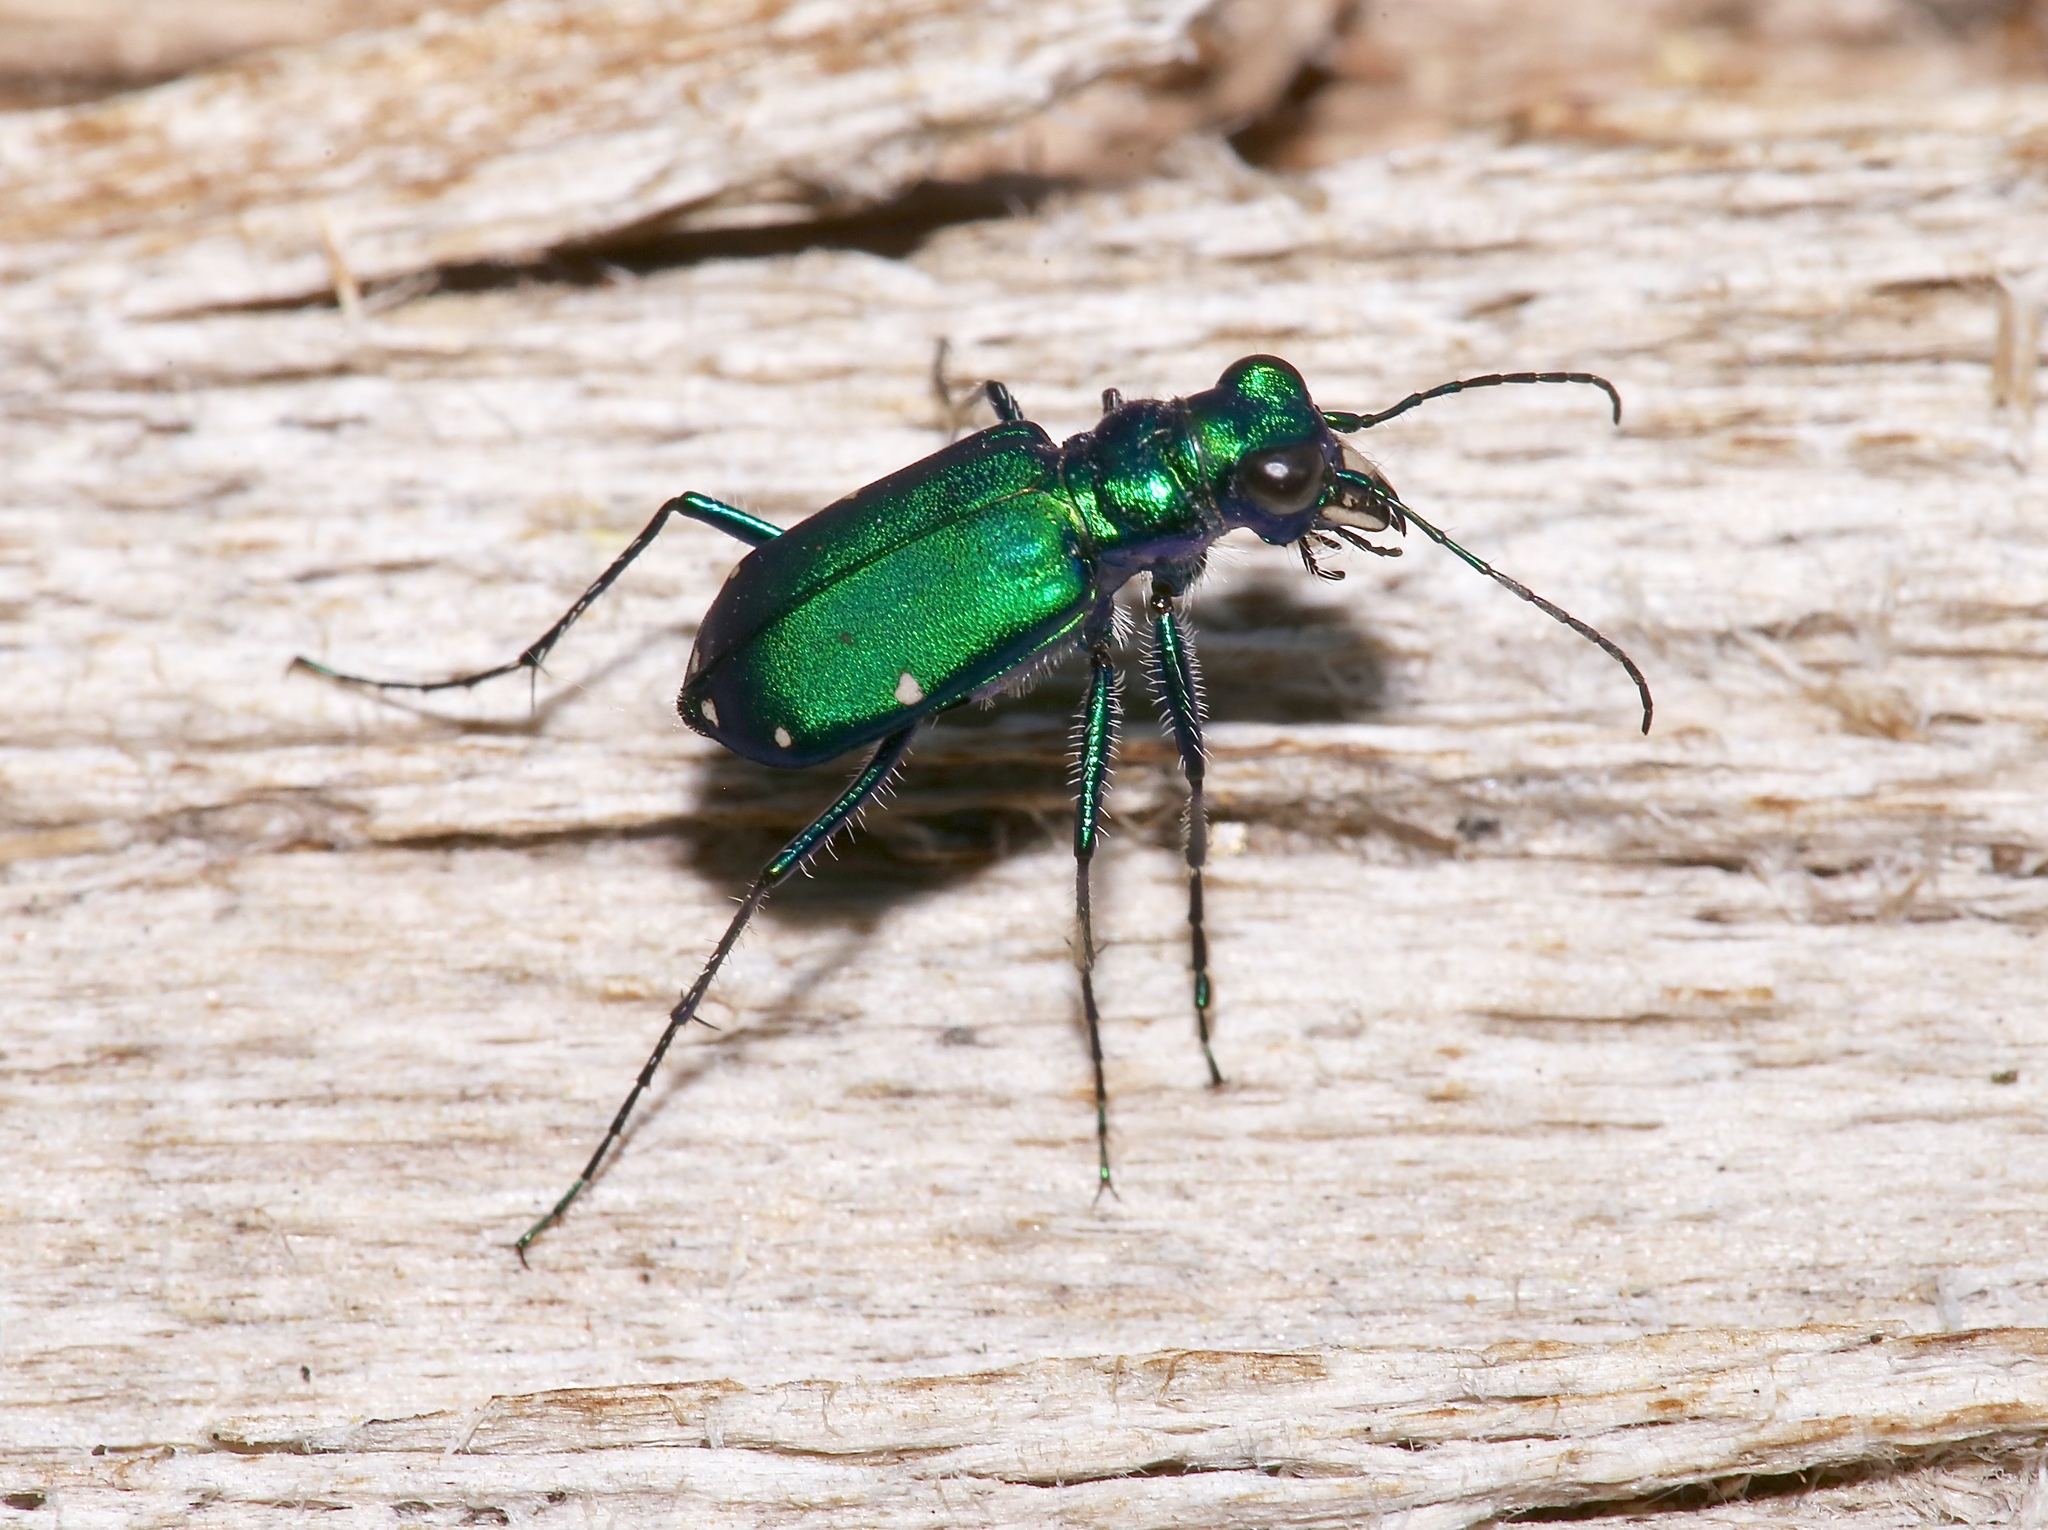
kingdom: Animalia
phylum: Arthropoda
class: Insecta
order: Coleoptera
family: Carabidae
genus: Cicindela
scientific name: Cicindela sexguttata
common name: Six-spotted tiger beetle
